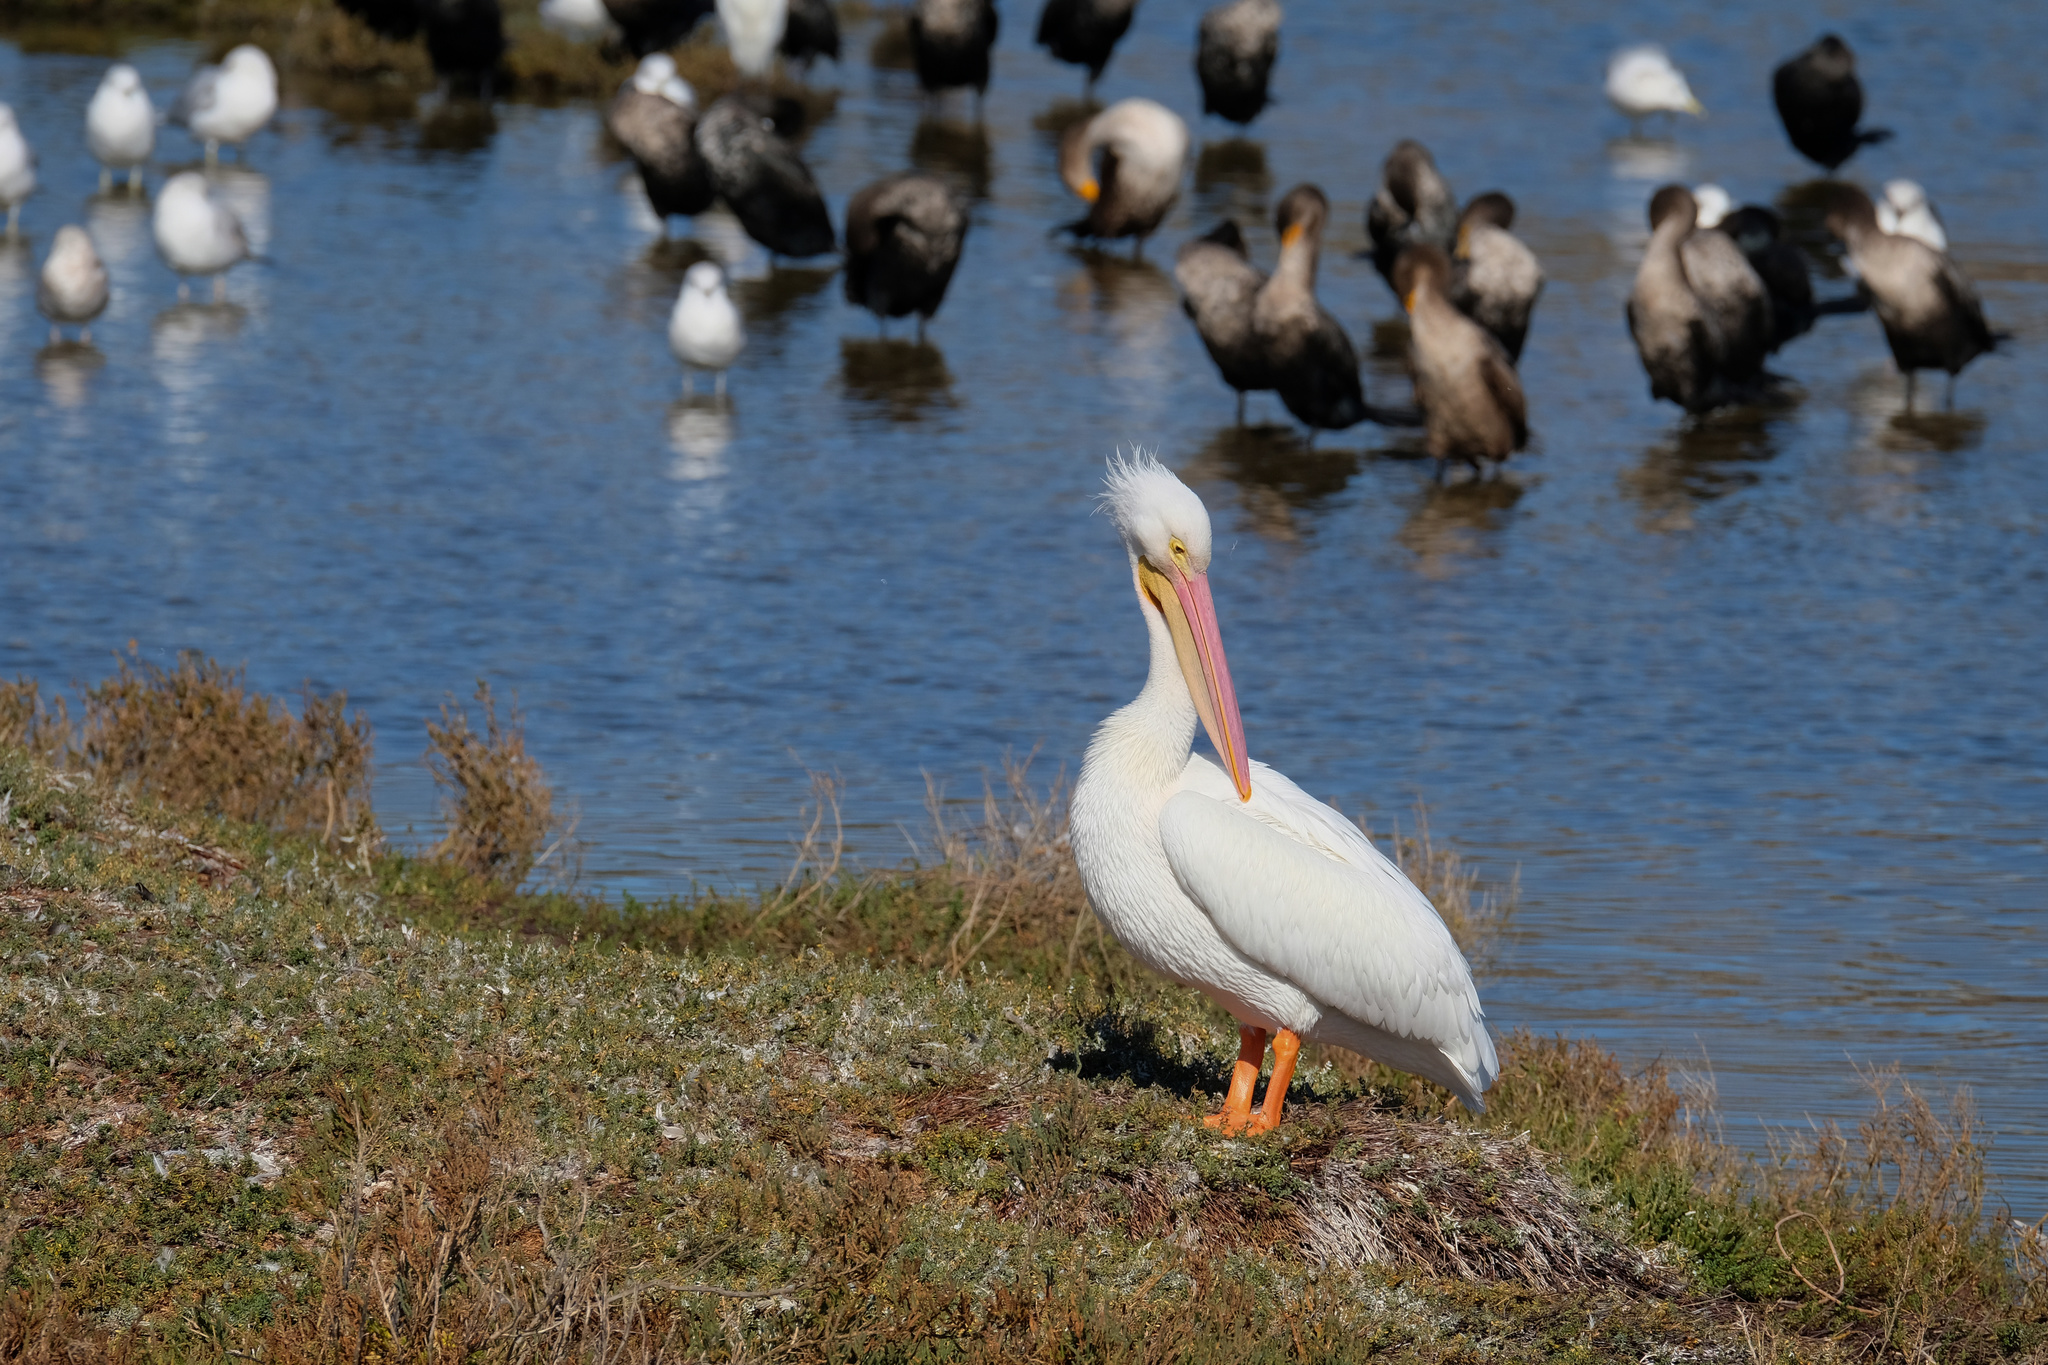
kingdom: Animalia
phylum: Chordata
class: Aves
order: Pelecaniformes
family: Pelecanidae
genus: Pelecanus
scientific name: Pelecanus erythrorhynchos
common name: American white pelican
